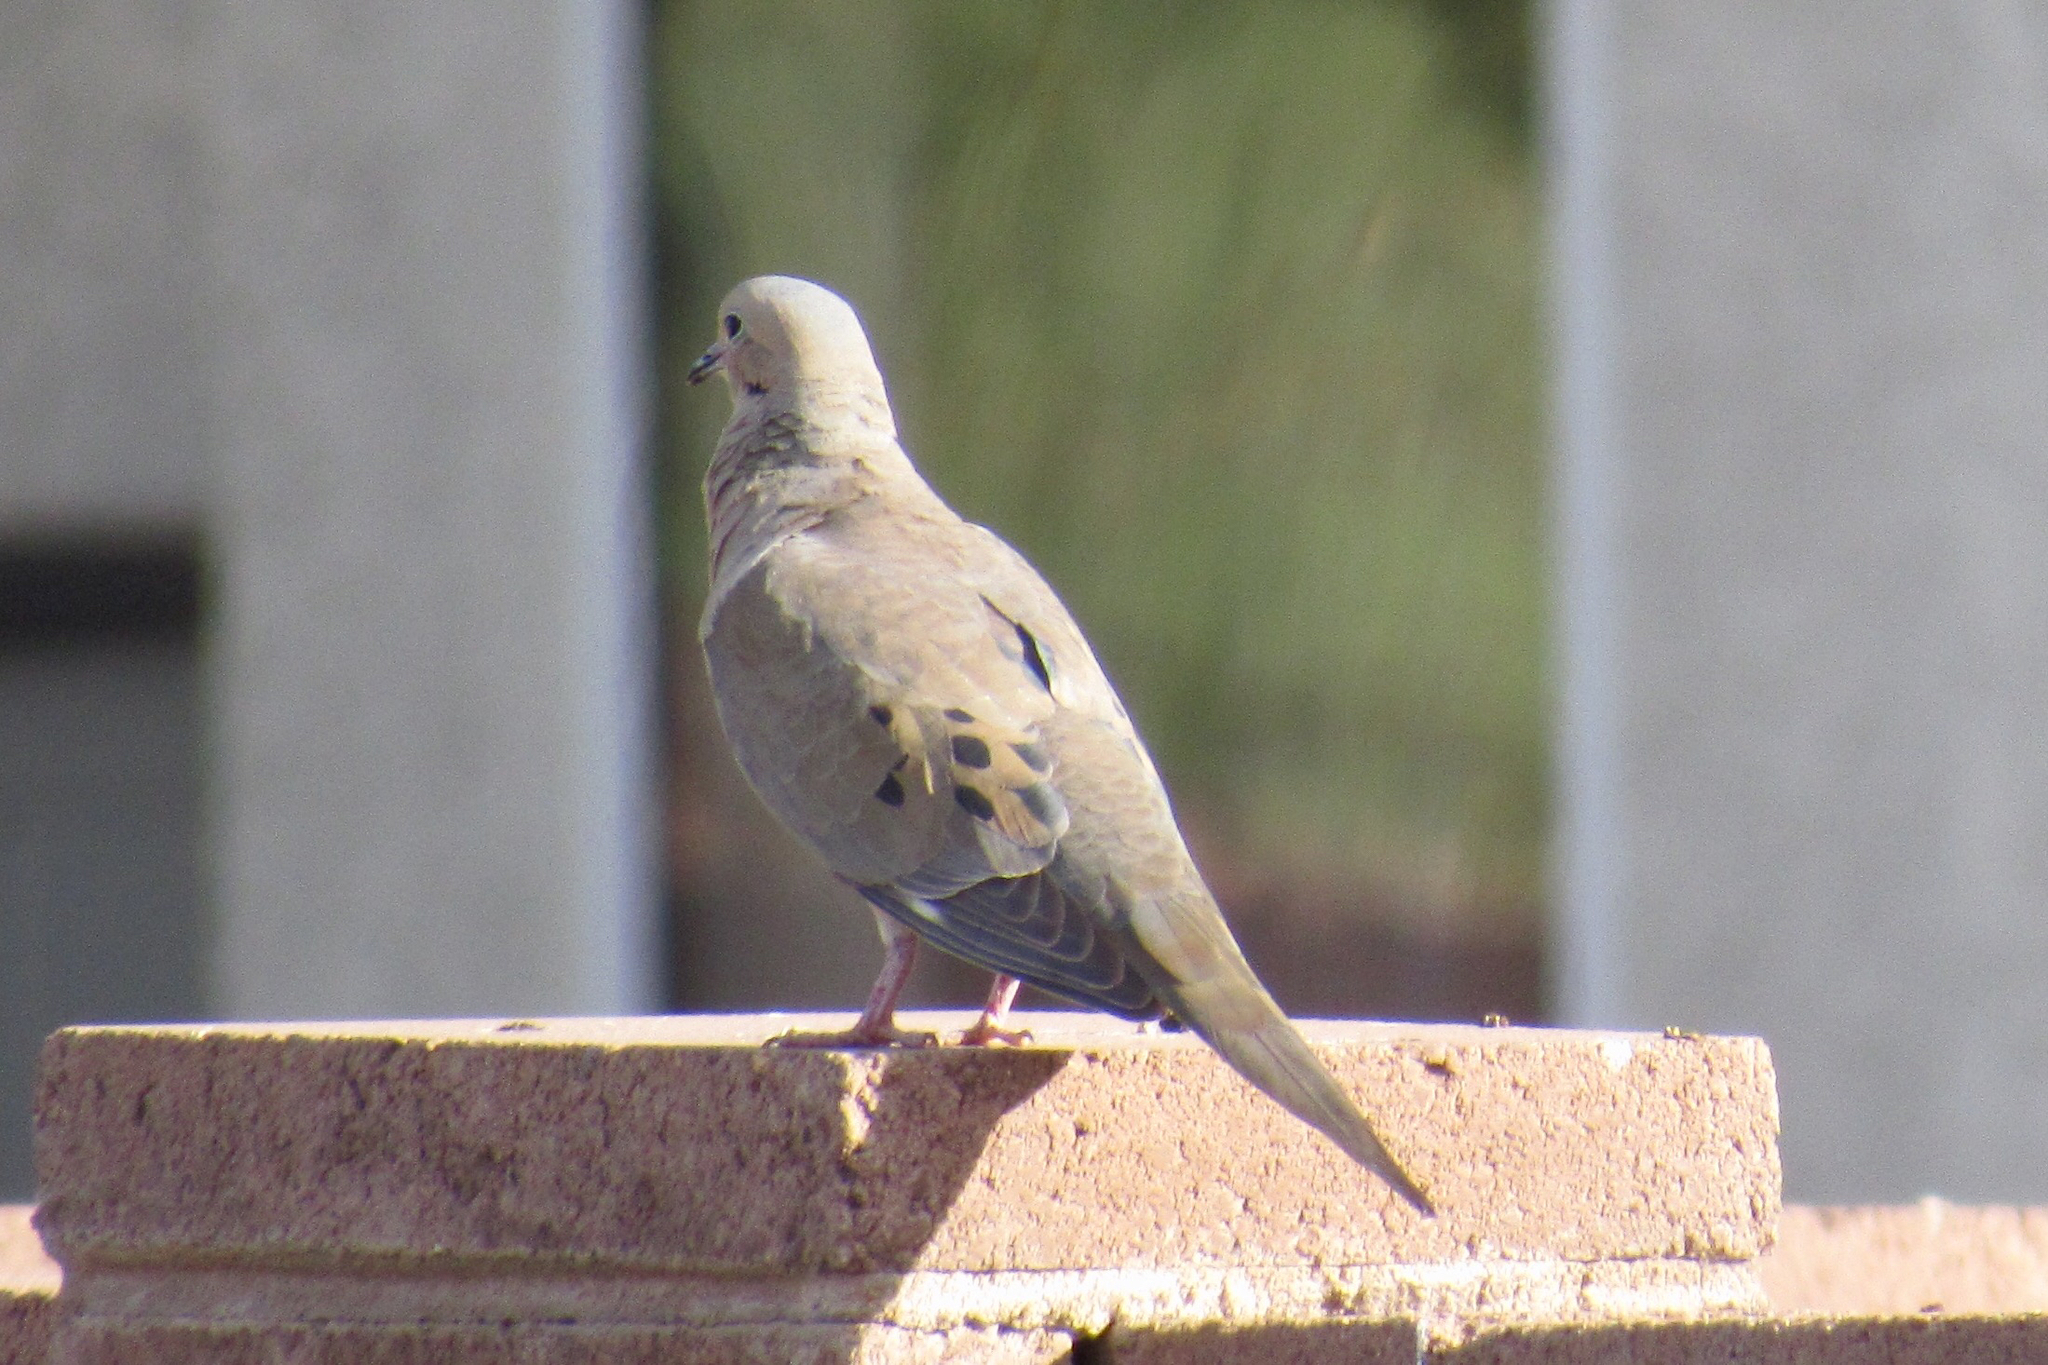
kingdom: Animalia
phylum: Chordata
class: Aves
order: Columbiformes
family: Columbidae
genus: Zenaida
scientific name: Zenaida macroura
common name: Mourning dove
